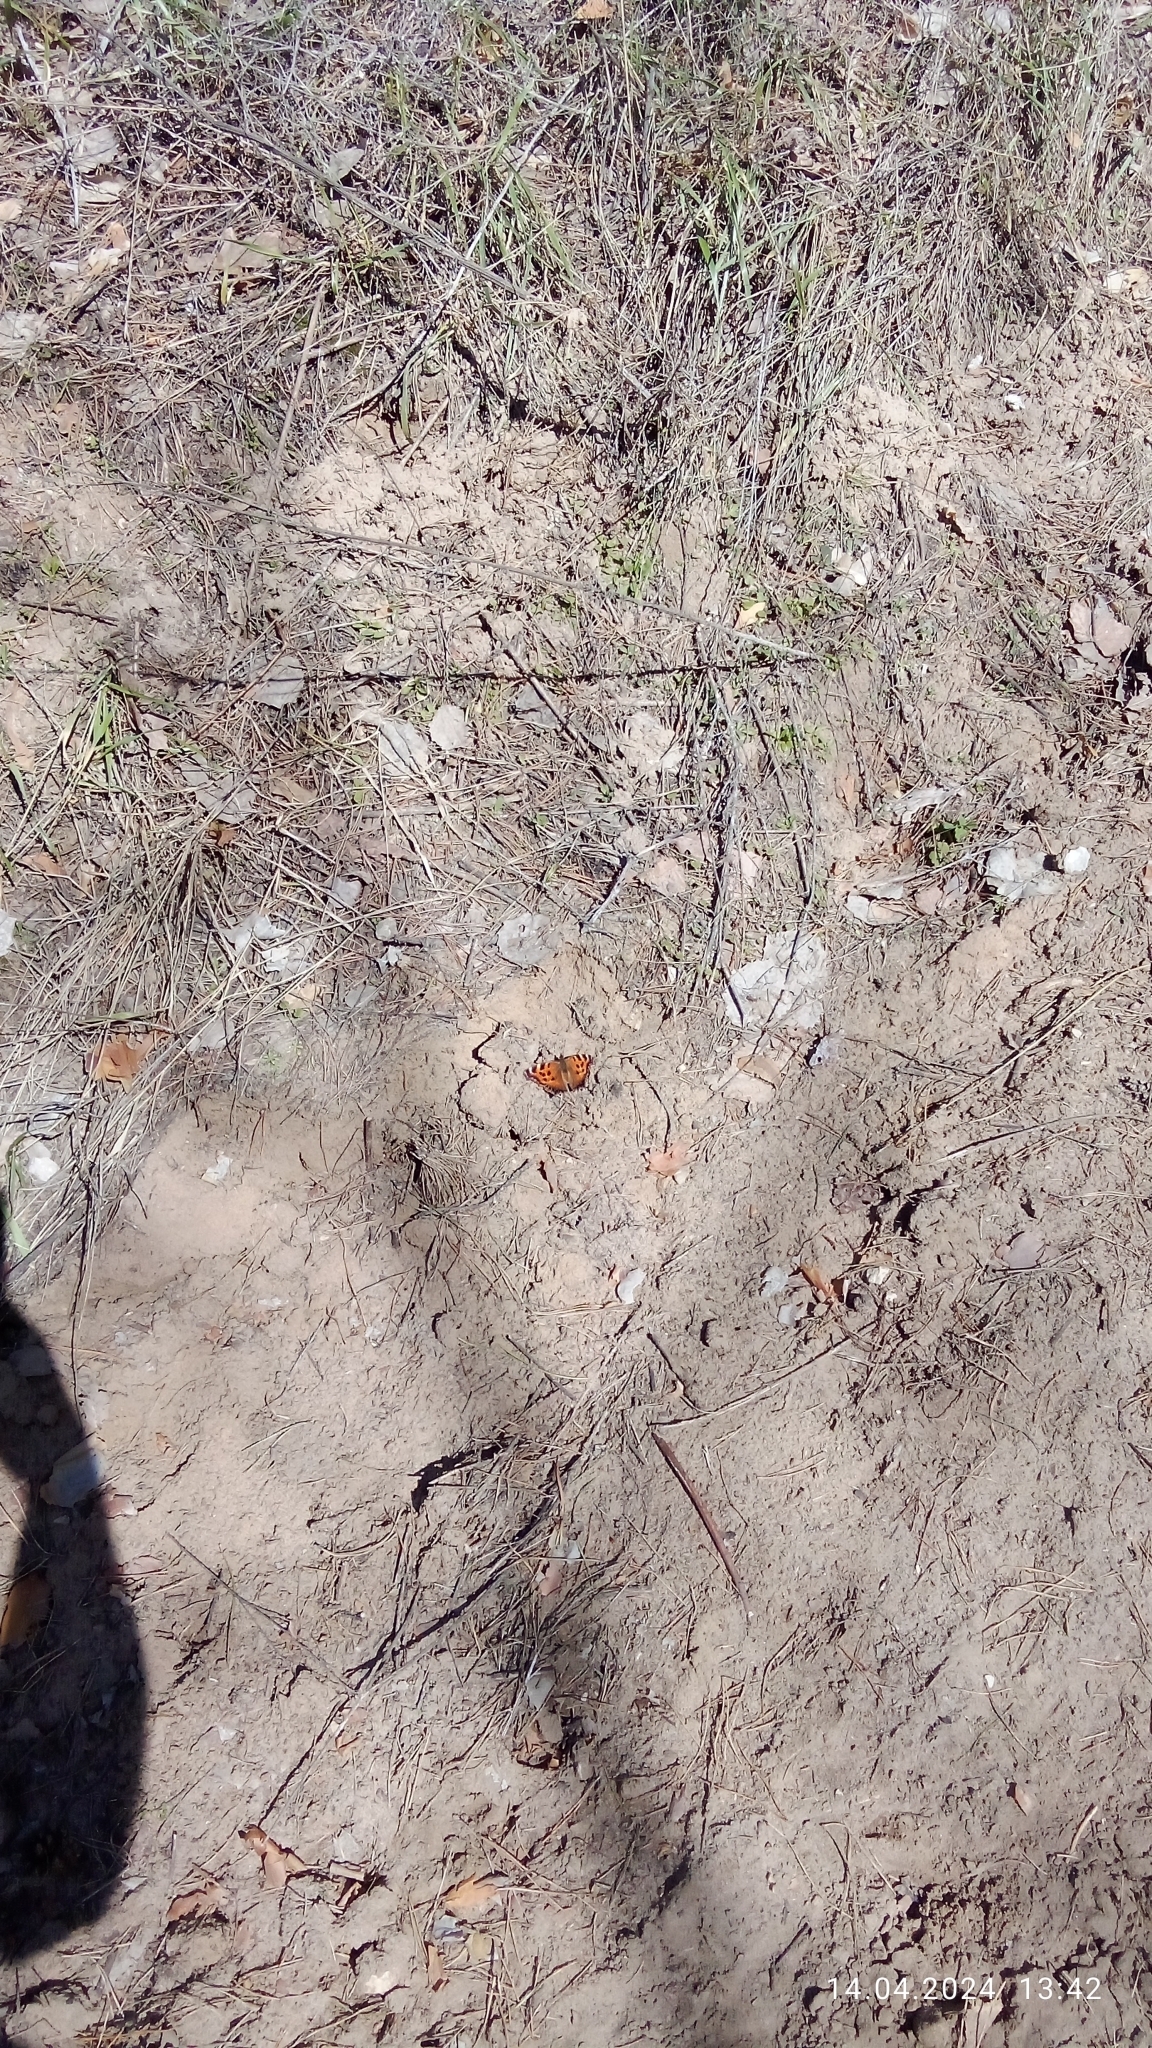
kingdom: Animalia
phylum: Arthropoda
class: Insecta
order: Lepidoptera
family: Nymphalidae
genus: Nymphalis
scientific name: Nymphalis xanthomelas
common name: Scarce tortoiseshell
